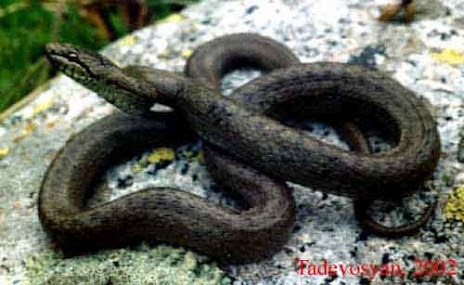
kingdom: Animalia
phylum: Chordata
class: Squamata
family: Colubridae
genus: Coronella
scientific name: Coronella austriaca
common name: Smooth snake
